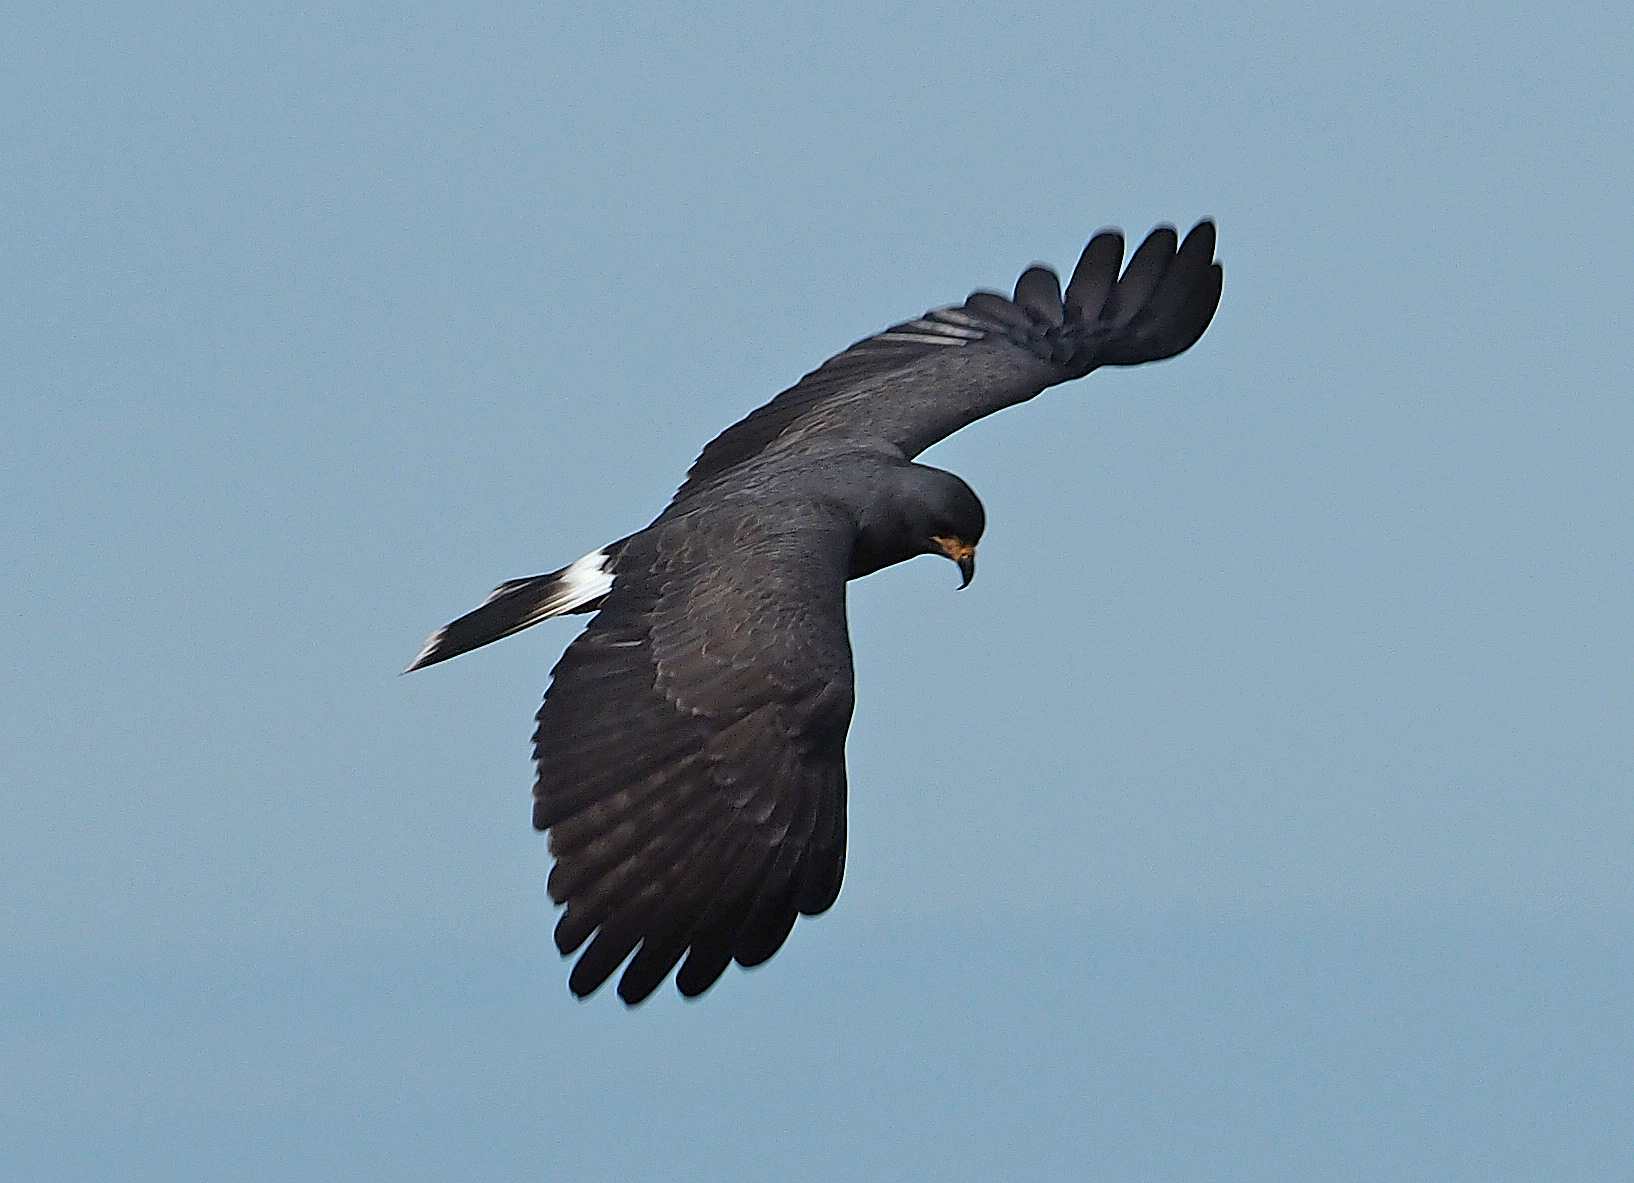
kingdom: Animalia
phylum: Chordata
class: Aves
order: Accipitriformes
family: Accipitridae
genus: Rostrhamus
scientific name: Rostrhamus sociabilis
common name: Snail kite
